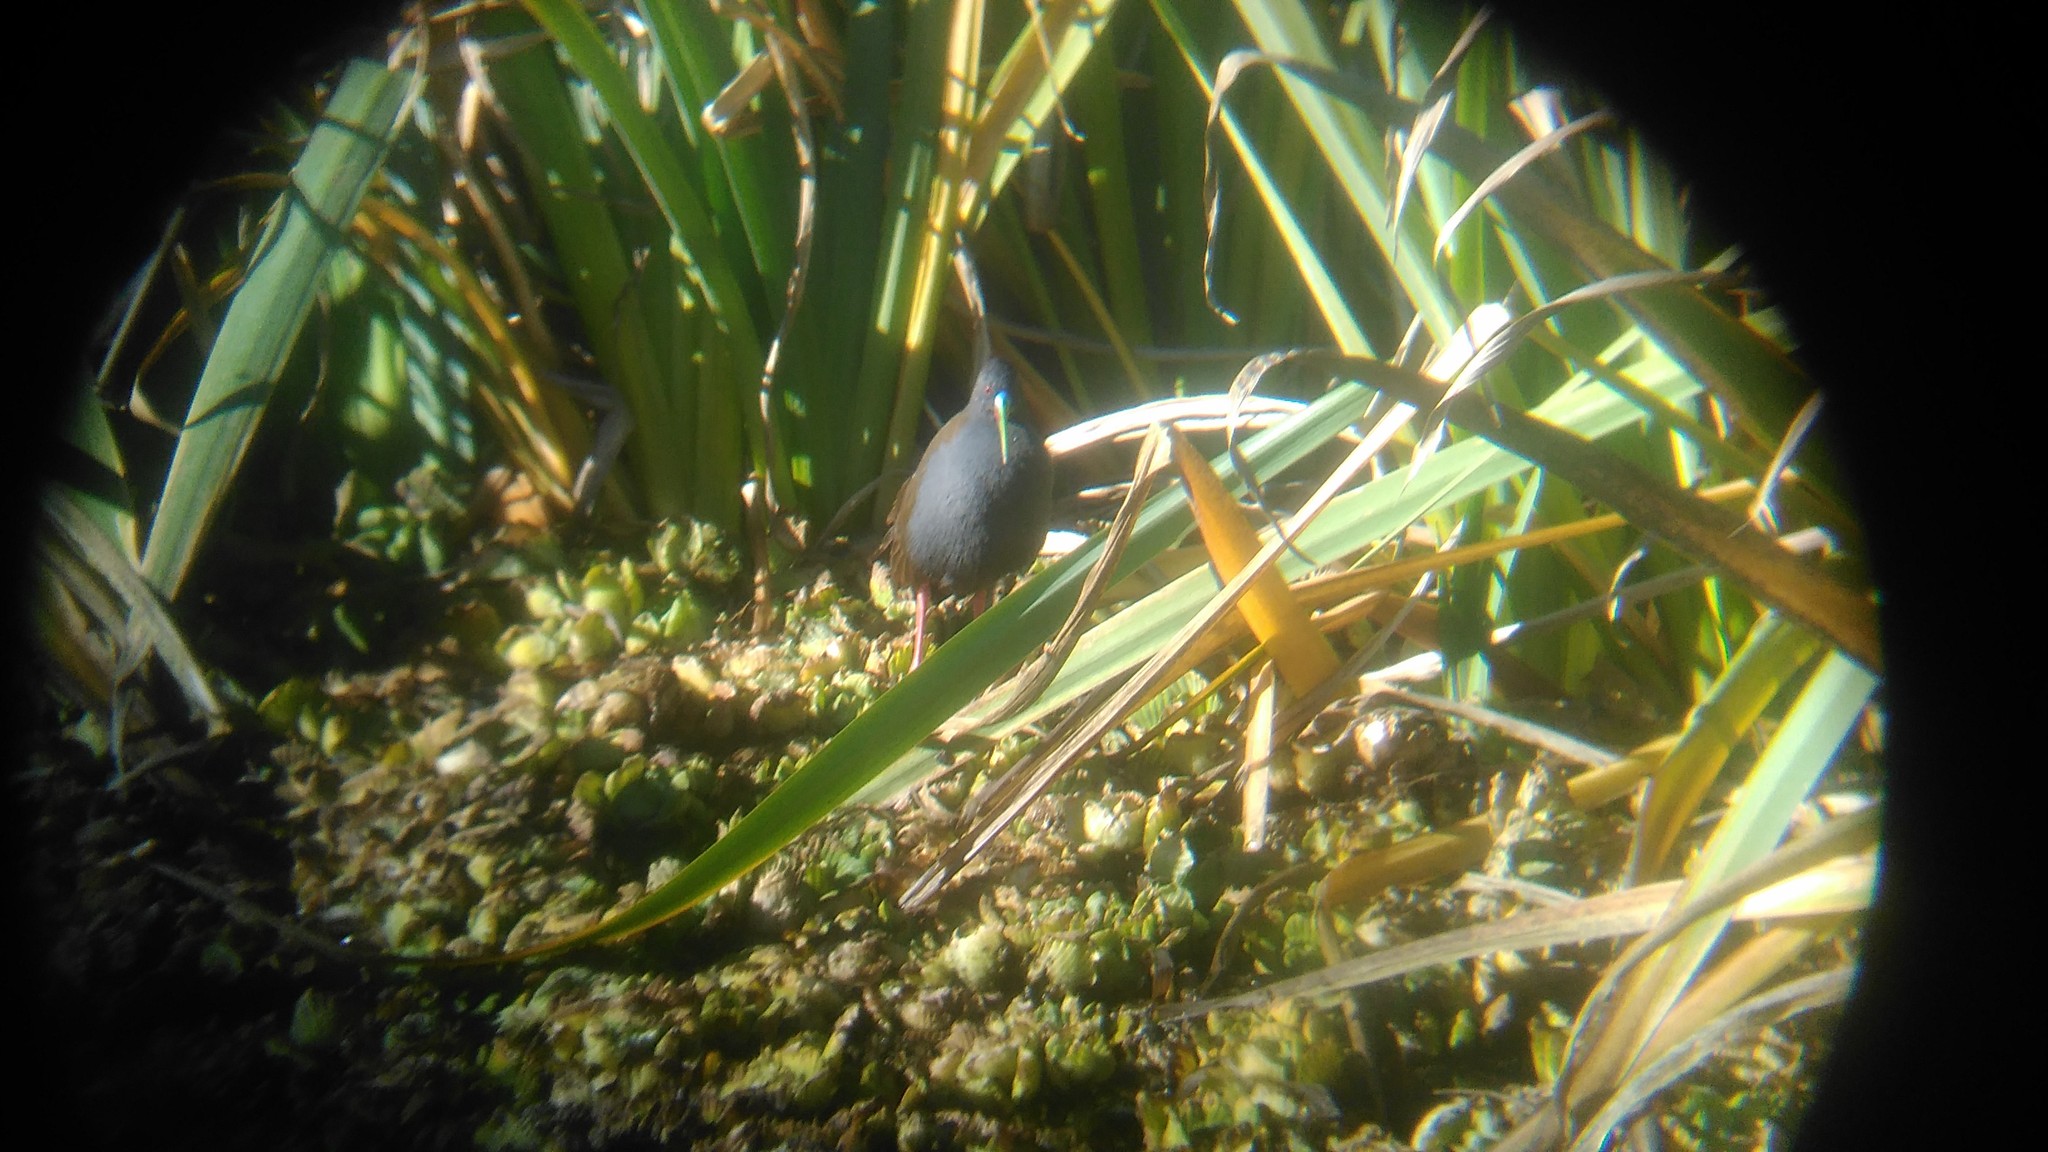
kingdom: Animalia
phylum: Chordata
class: Aves
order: Gruiformes
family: Rallidae
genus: Pardirallus
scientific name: Pardirallus sanguinolentus
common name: Plumbeous rail
